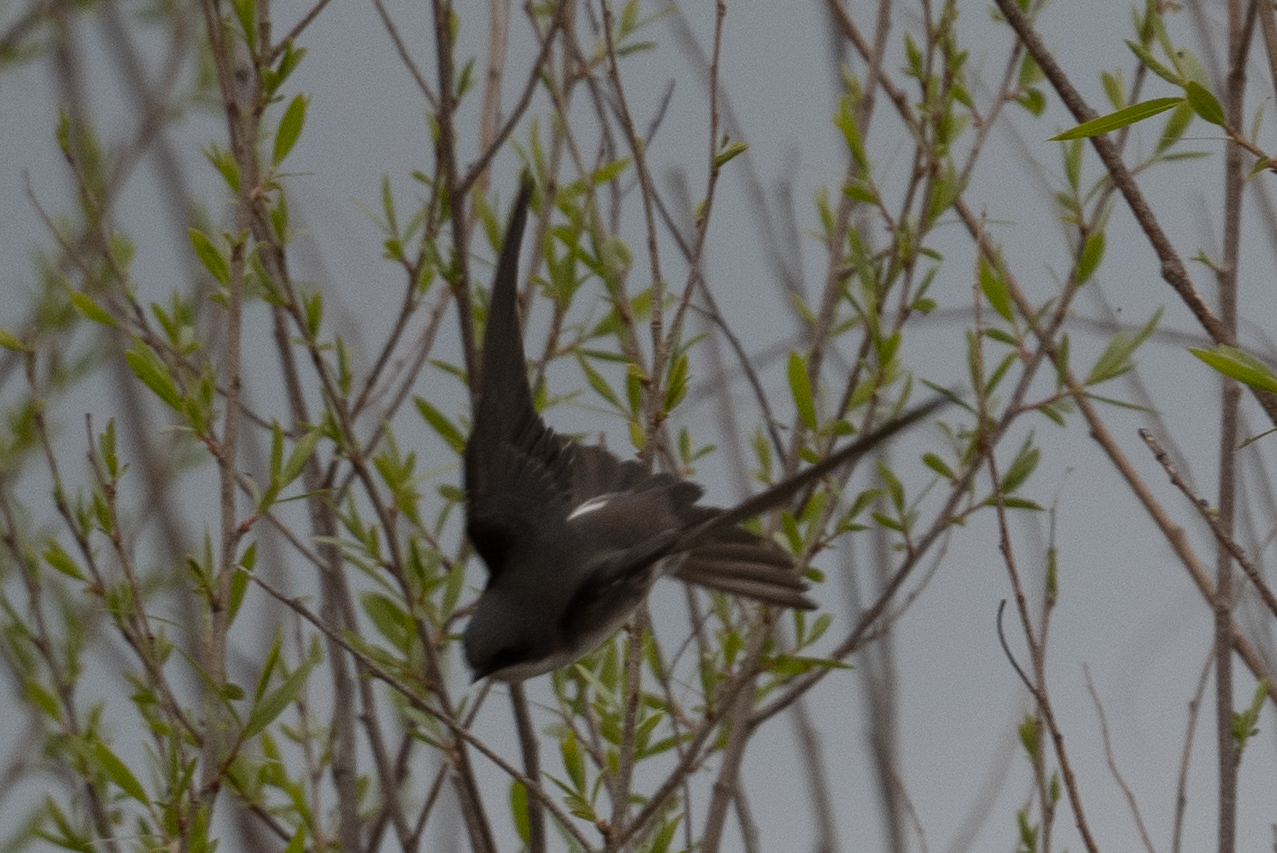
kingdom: Animalia
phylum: Chordata
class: Aves
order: Passeriformes
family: Hirundinidae
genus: Tachycineta
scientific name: Tachycineta bicolor
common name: Tree swallow
